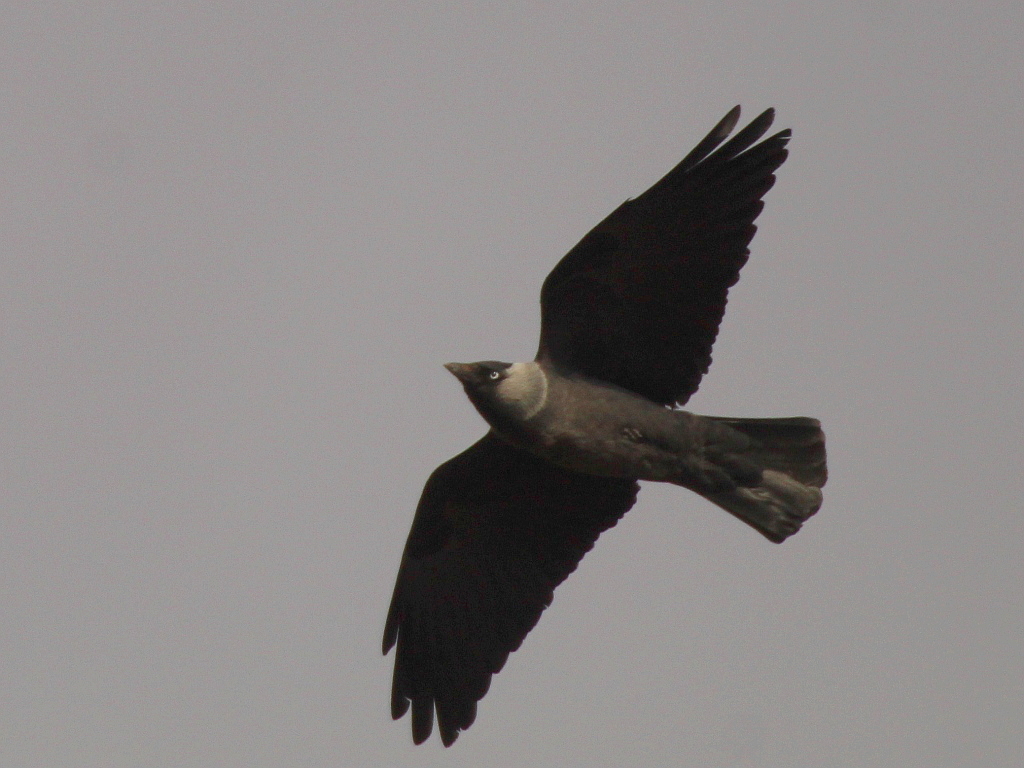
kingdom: Animalia
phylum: Chordata
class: Aves
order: Passeriformes
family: Corvidae
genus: Coloeus
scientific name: Coloeus monedula
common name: Western jackdaw
